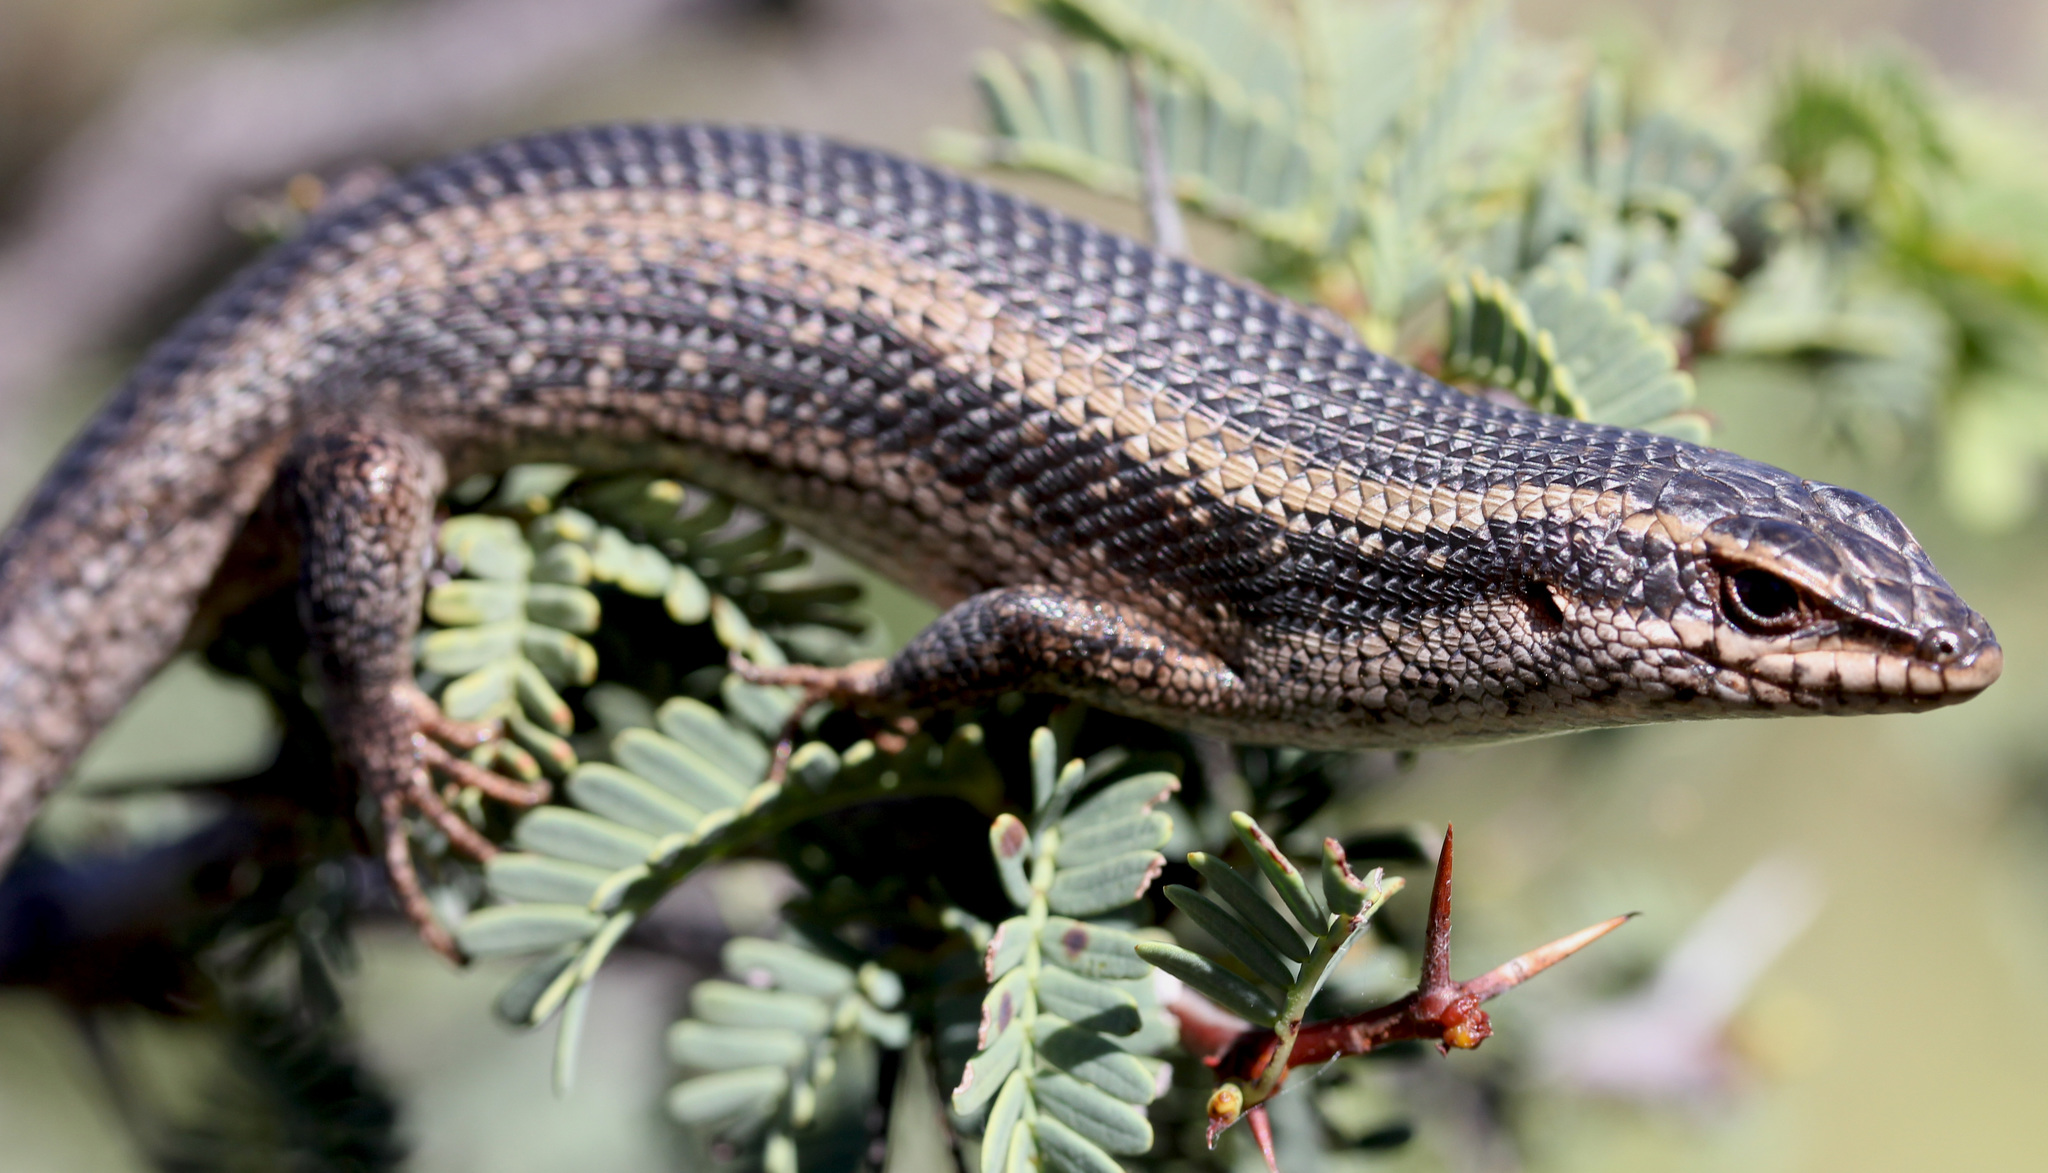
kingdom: Animalia
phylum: Chordata
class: Squamata
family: Scincidae
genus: Trachylepis
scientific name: Trachylepis spilogaster
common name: Kalahari tree skink
